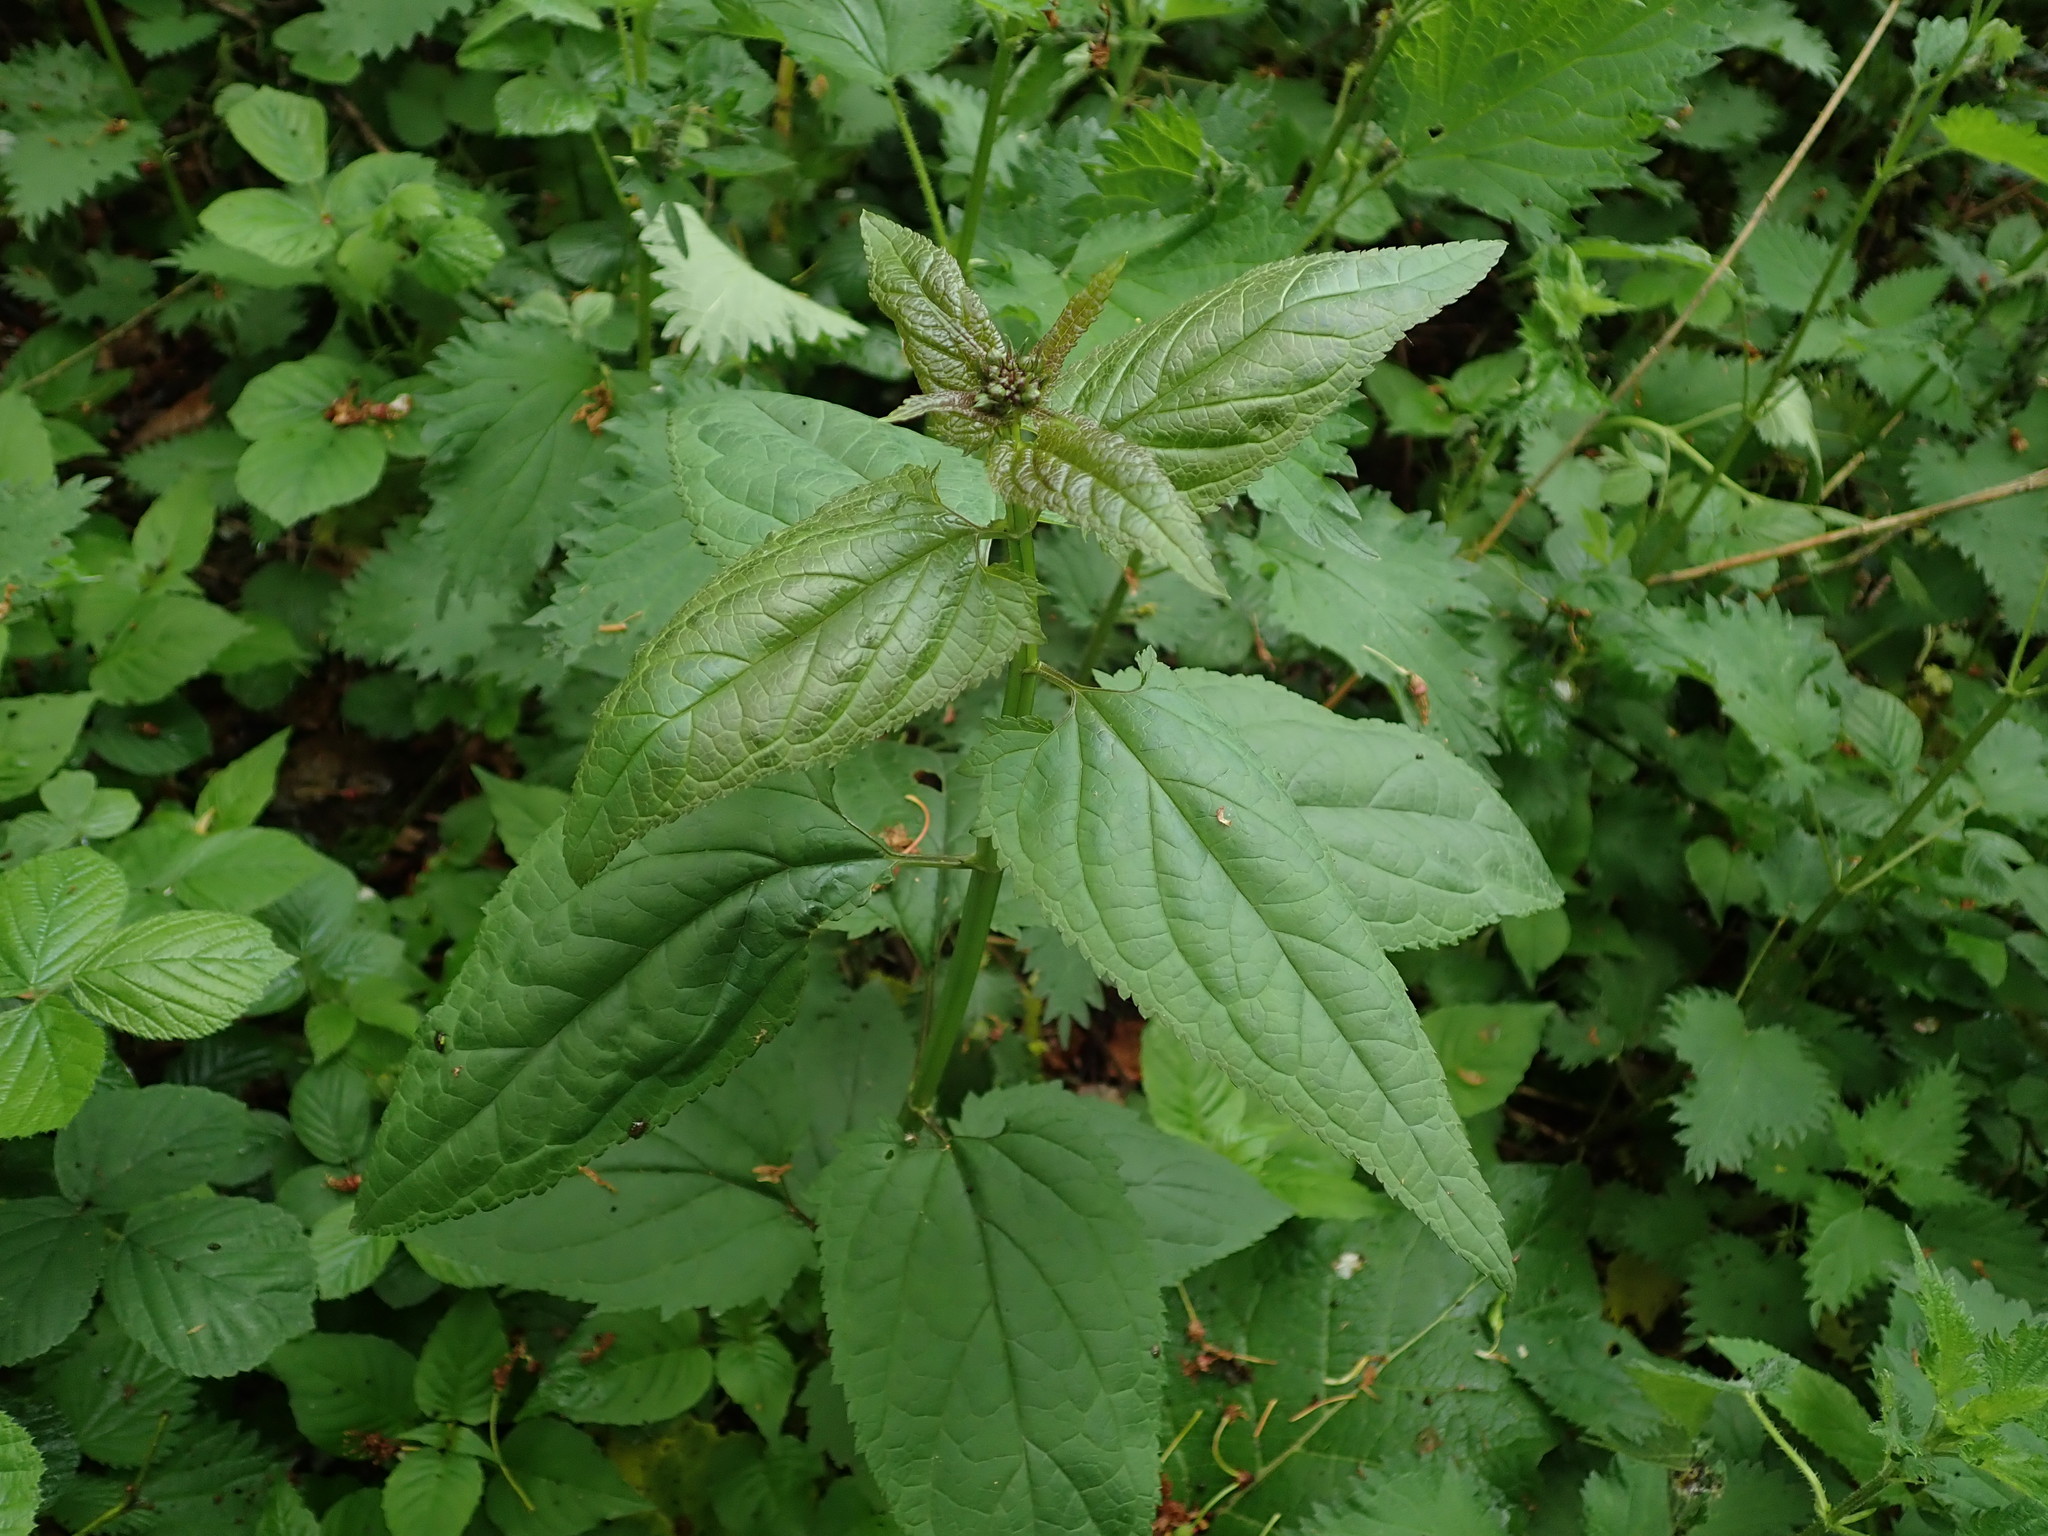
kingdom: Plantae
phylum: Tracheophyta
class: Magnoliopsida
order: Lamiales
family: Scrophulariaceae
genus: Scrophularia
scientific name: Scrophularia nodosa
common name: Common figwort
